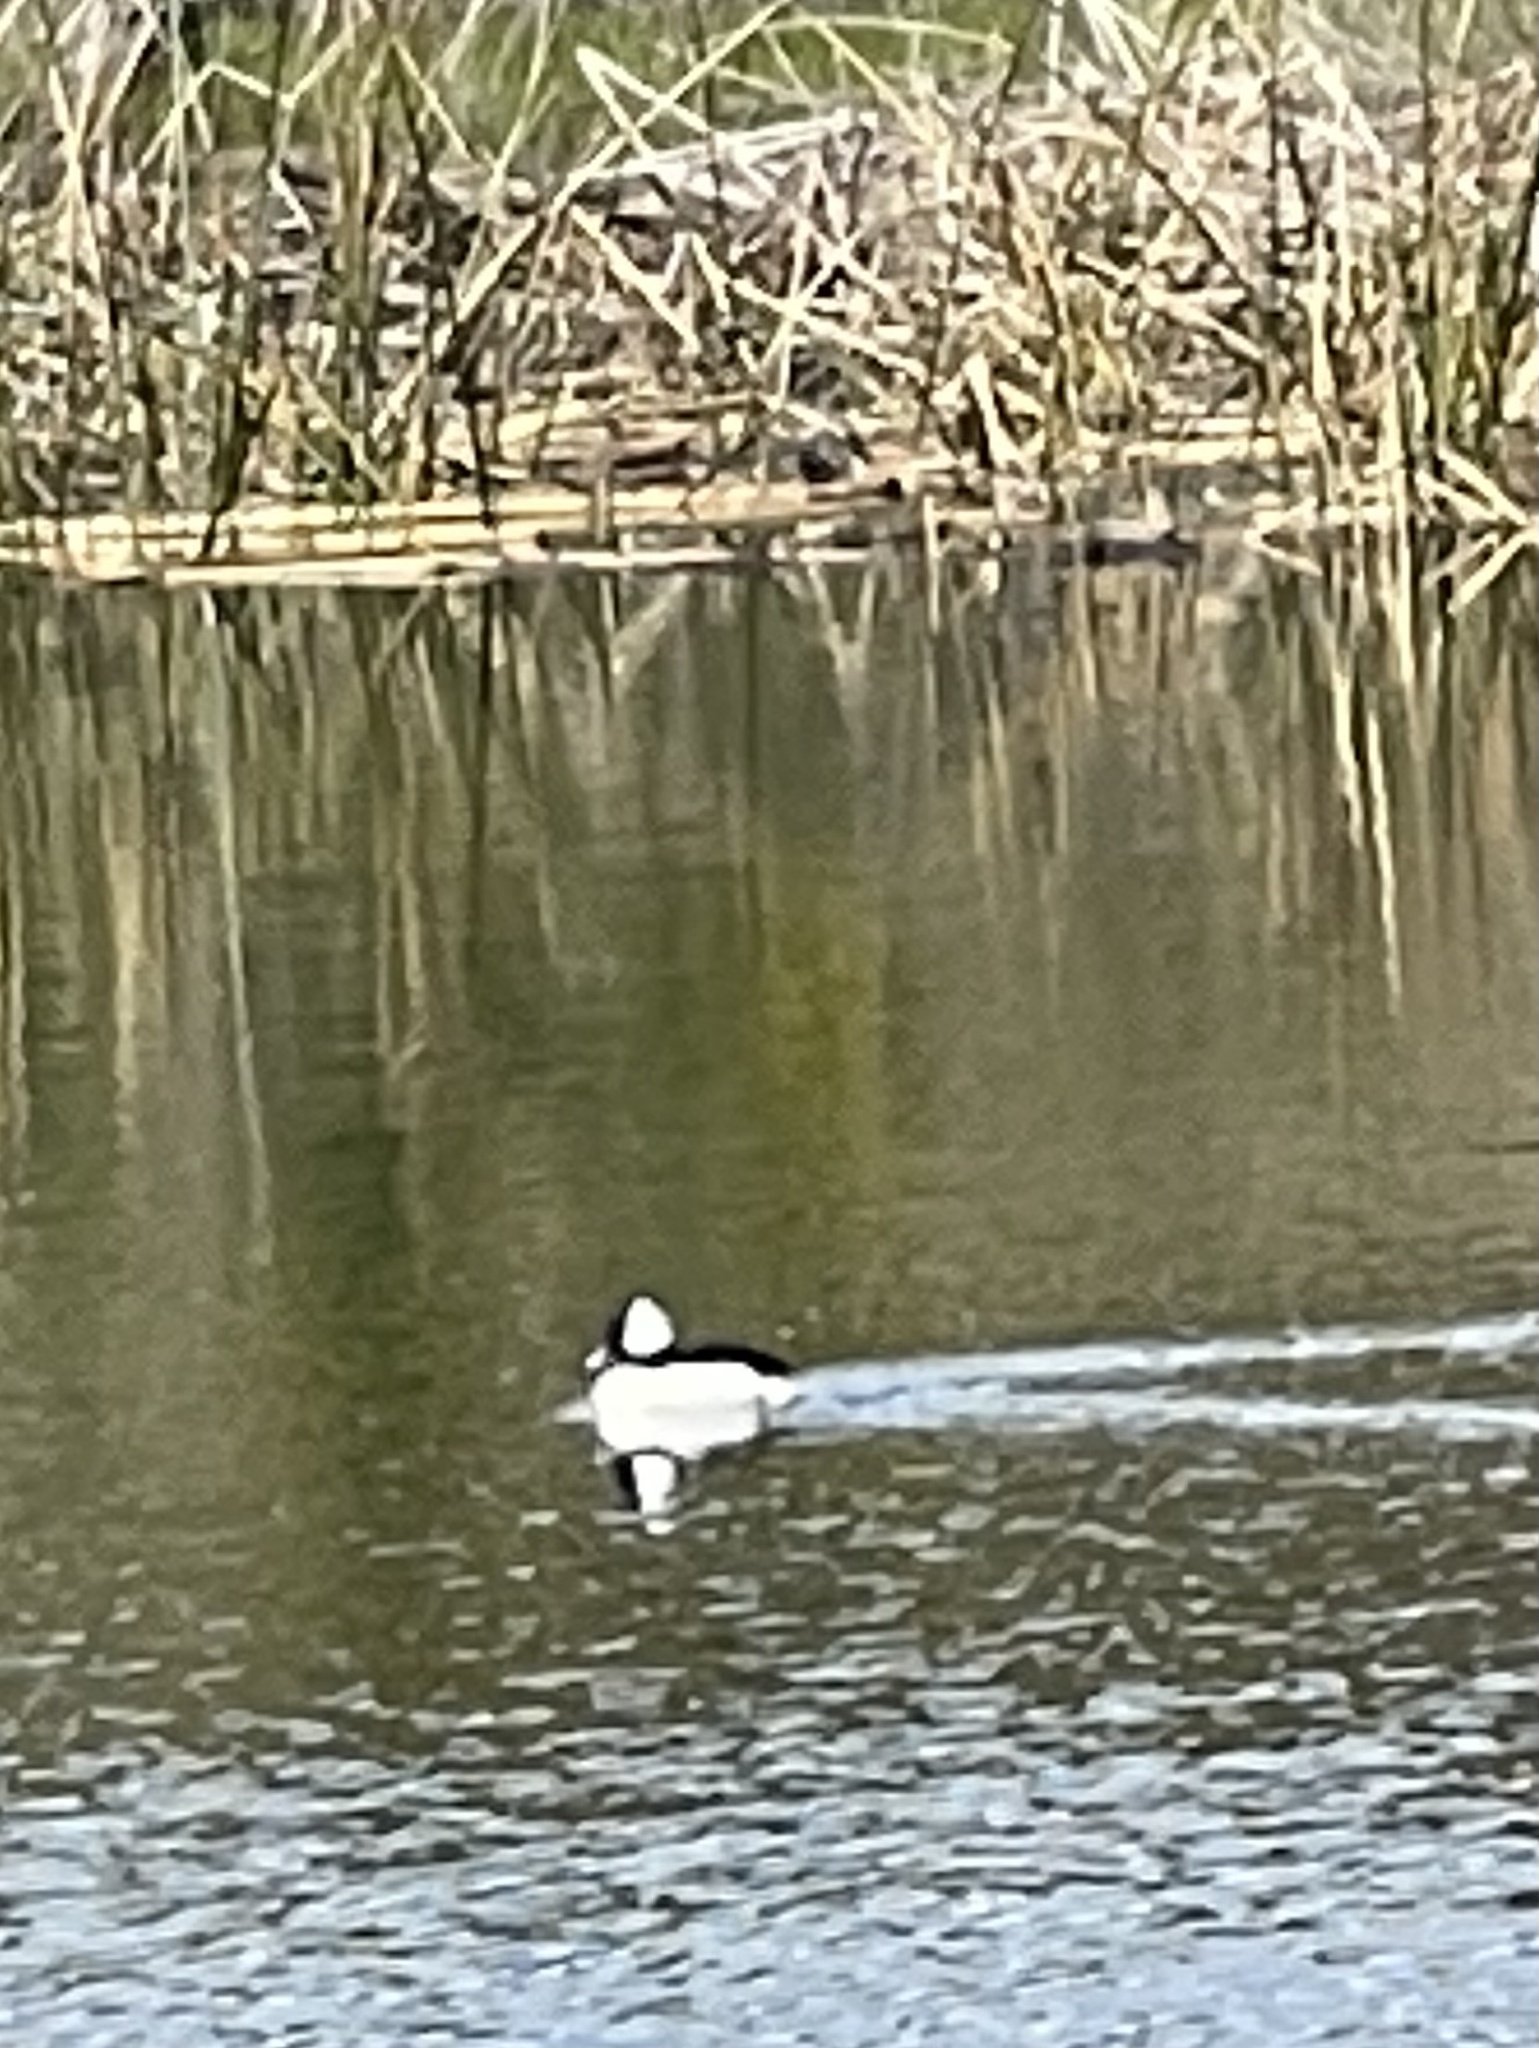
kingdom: Animalia
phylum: Chordata
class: Aves
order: Anseriformes
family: Anatidae
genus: Bucephala
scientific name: Bucephala albeola
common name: Bufflehead
